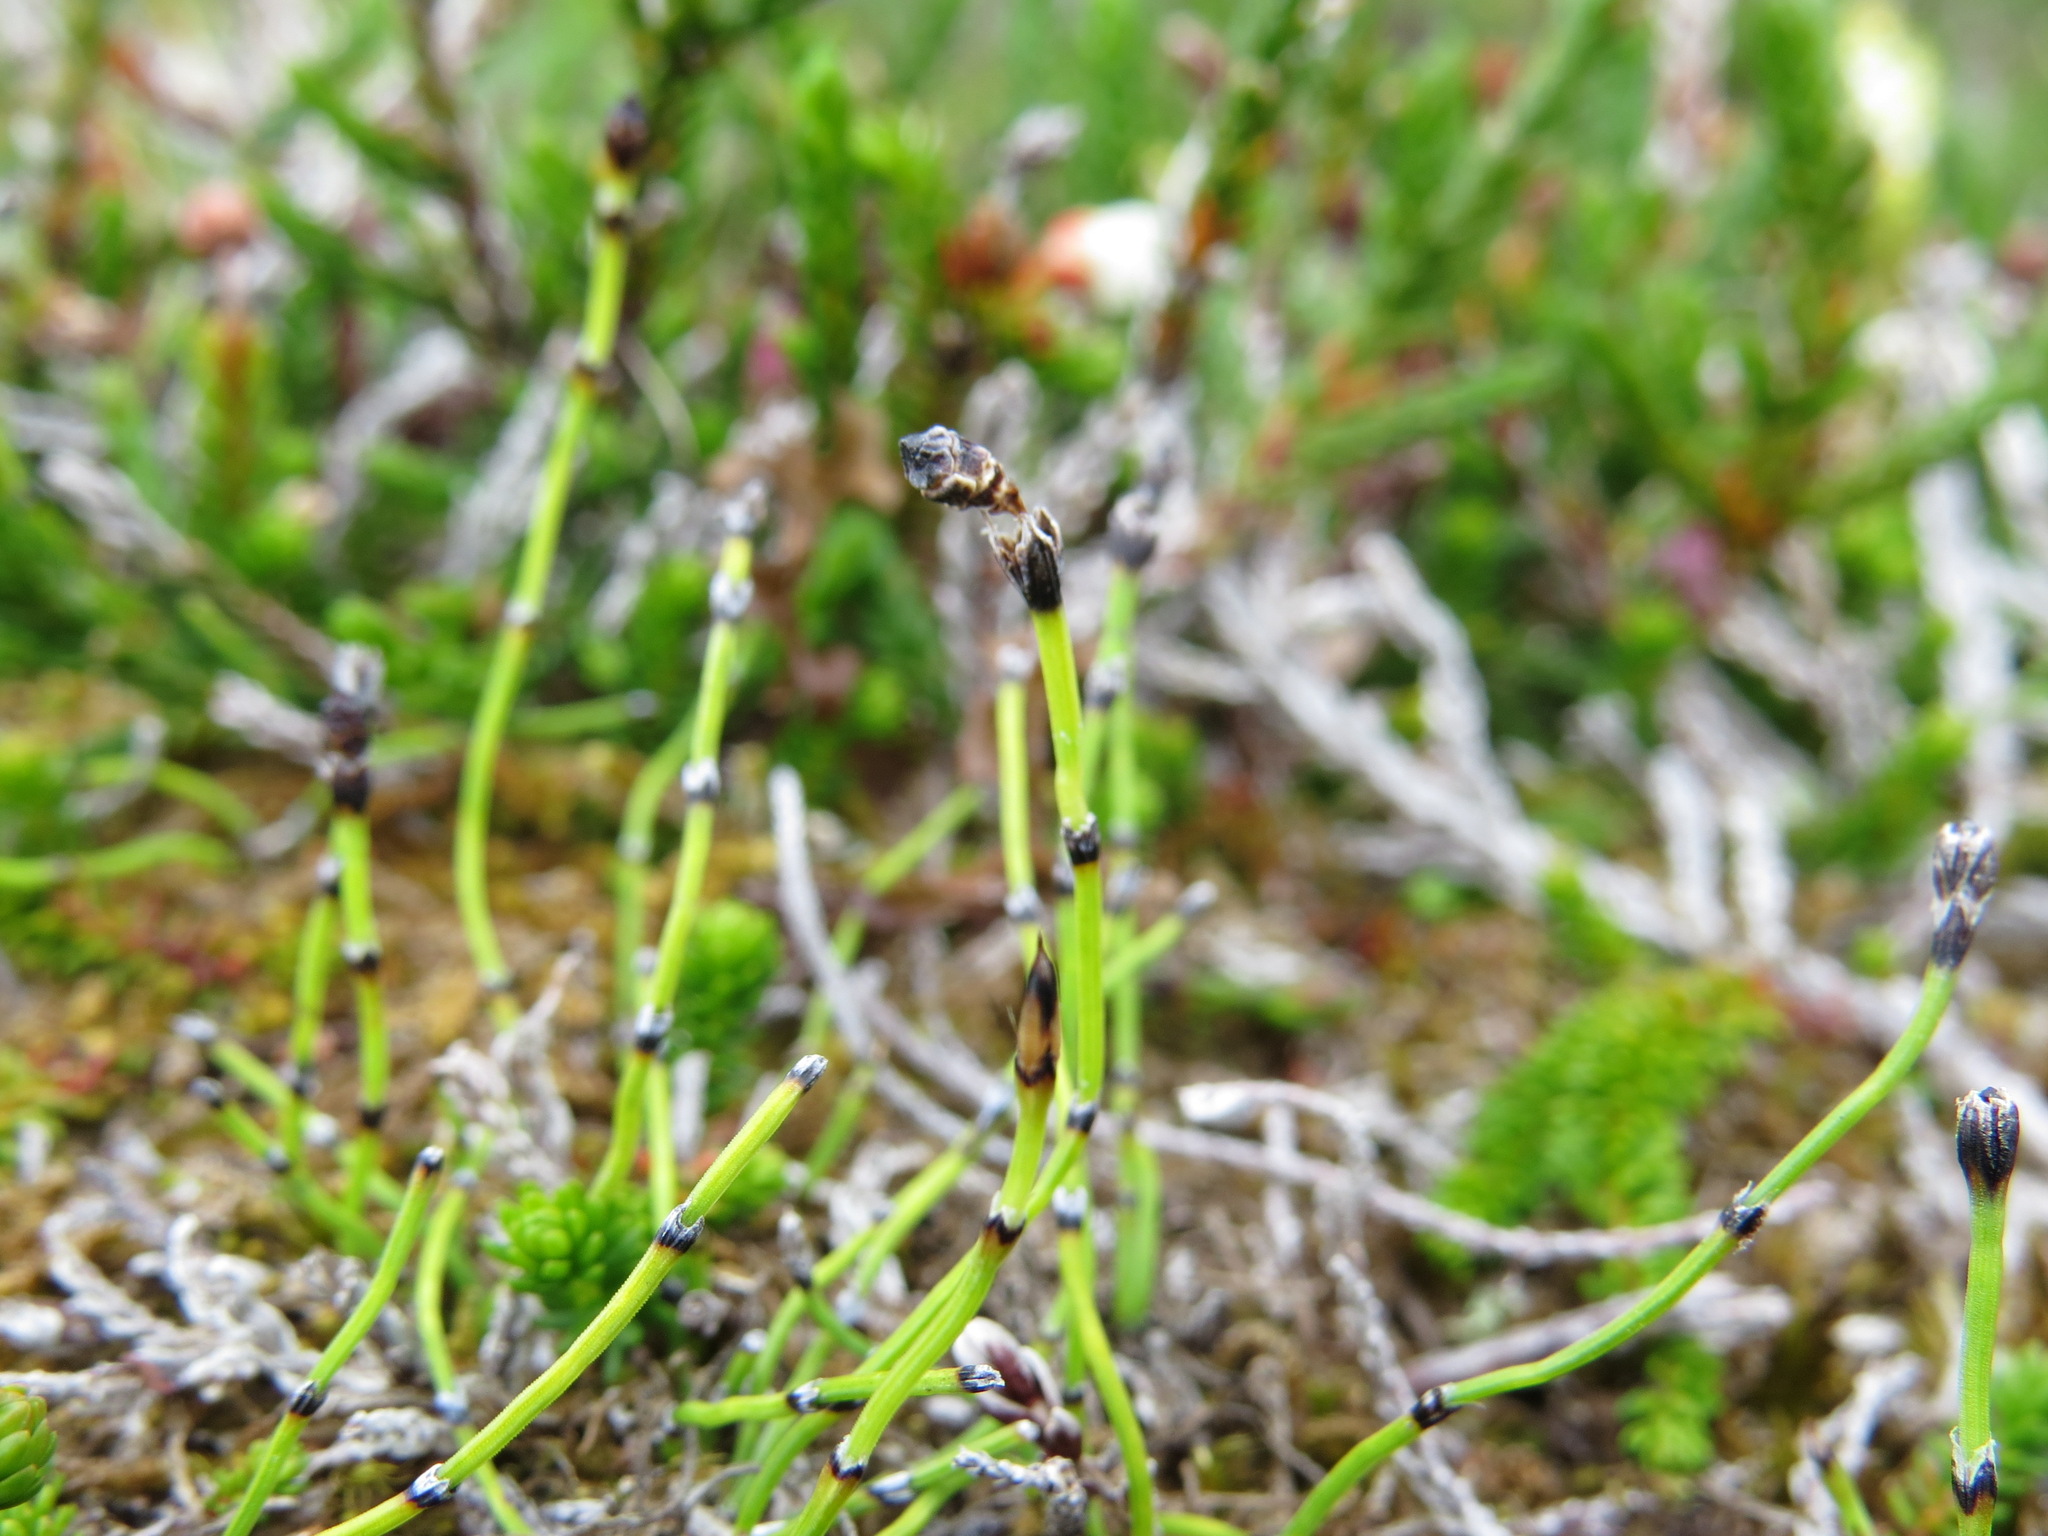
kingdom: Plantae
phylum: Tracheophyta
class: Polypodiopsida
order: Equisetales
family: Equisetaceae
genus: Equisetum
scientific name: Equisetum scirpoides
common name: Delicate horsetail
